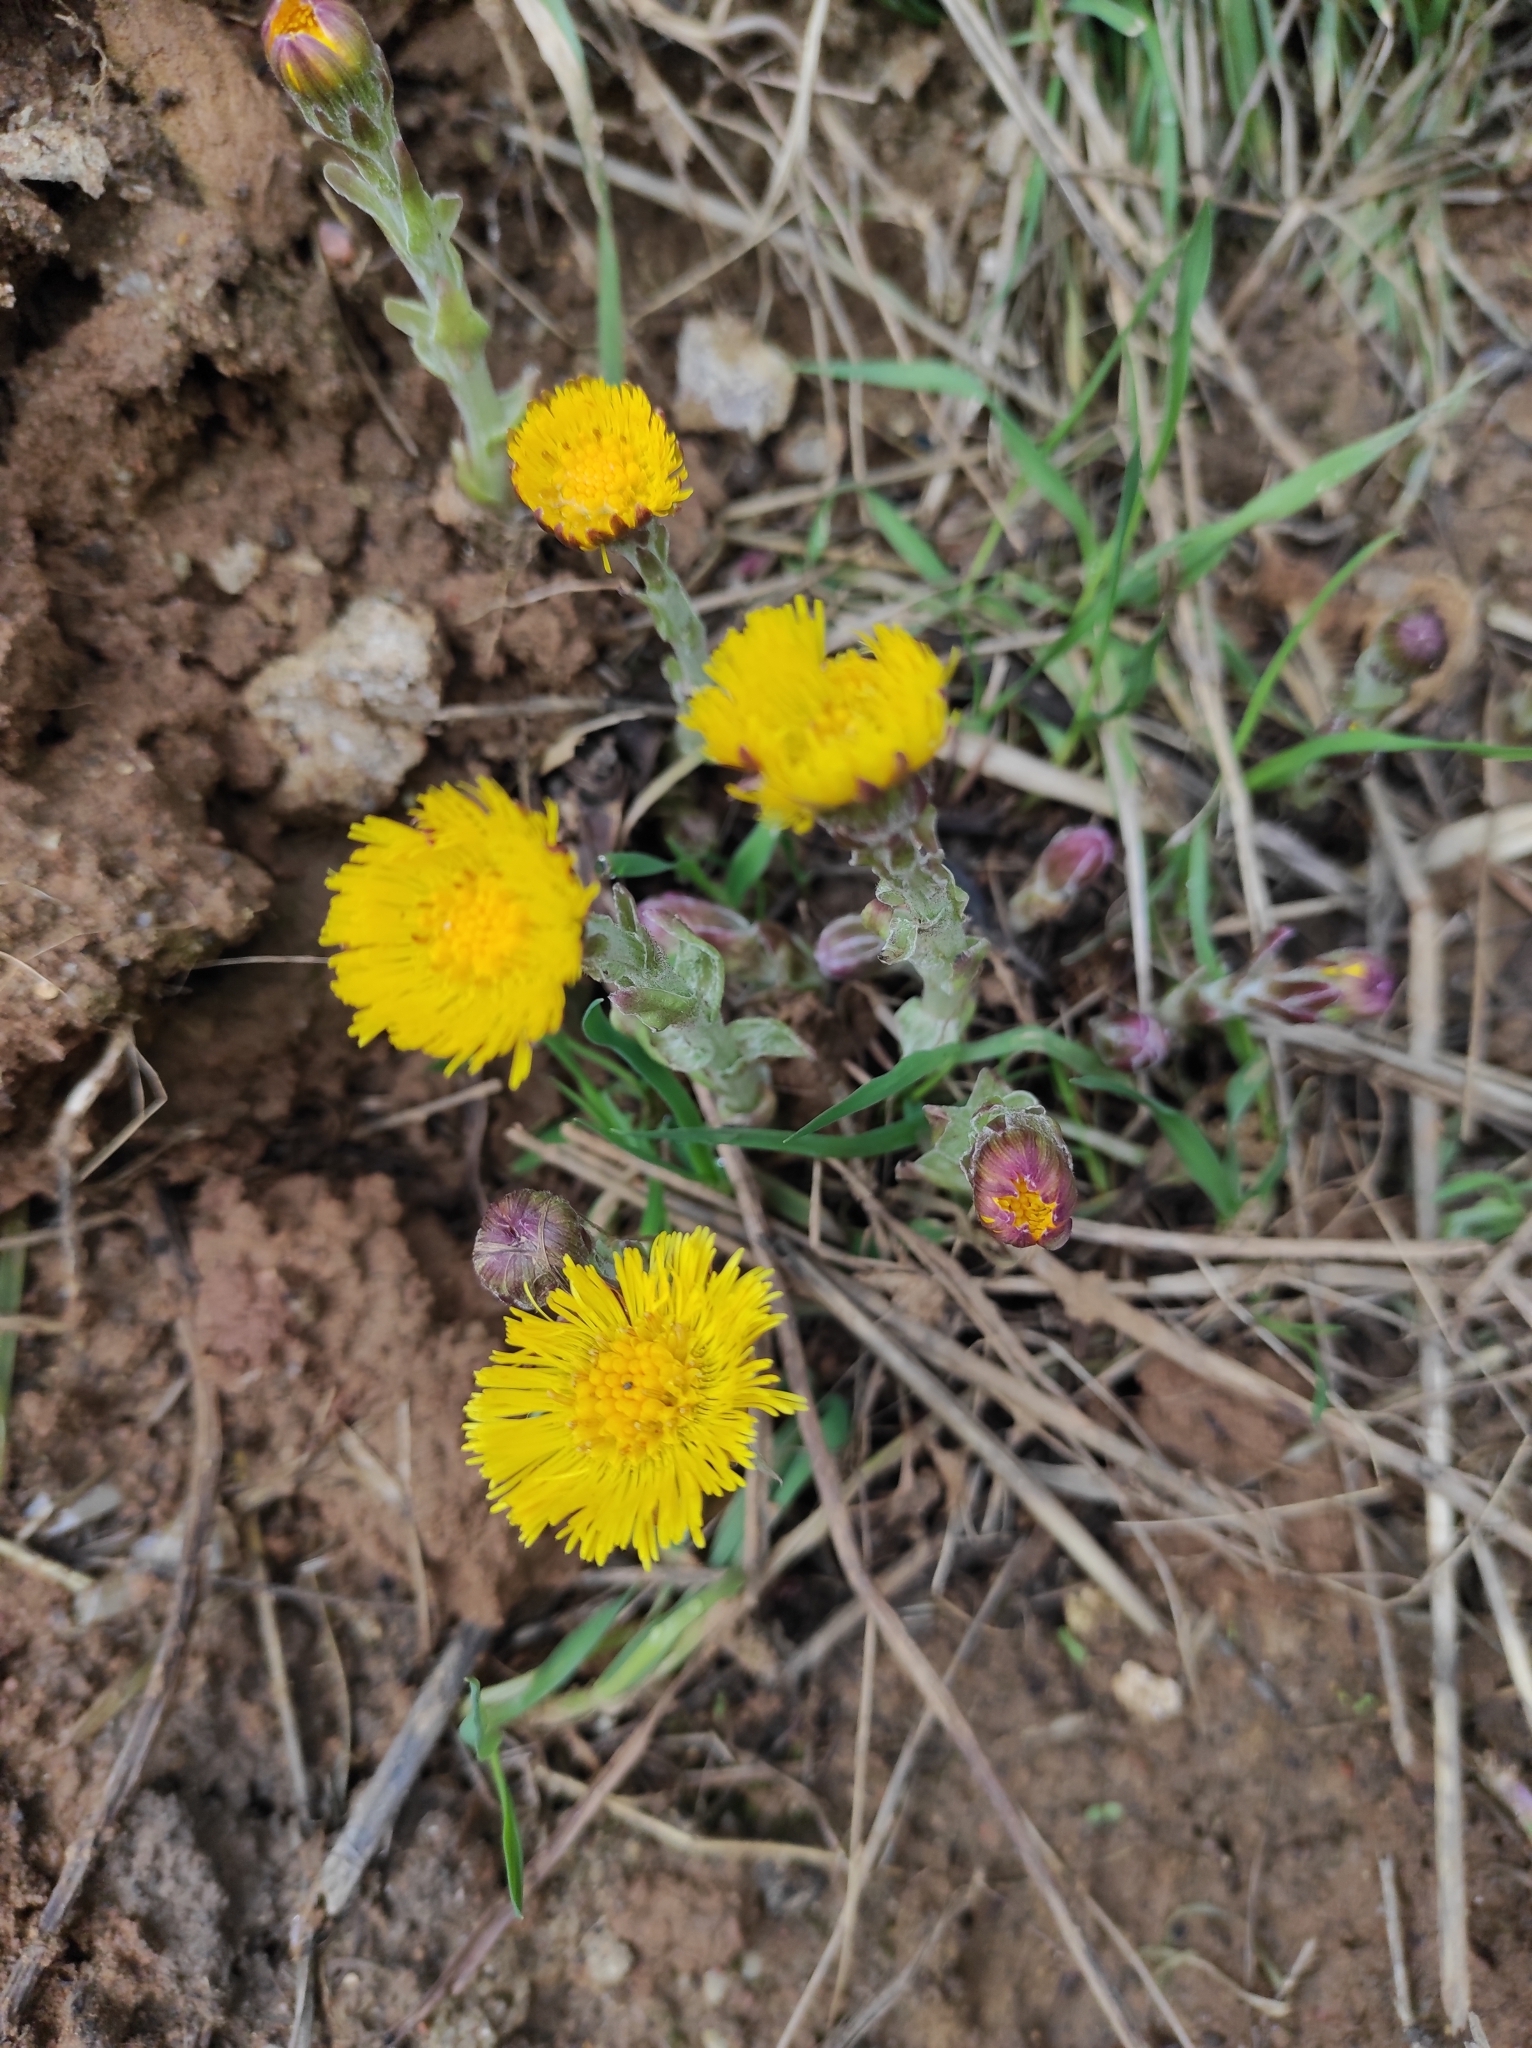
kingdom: Plantae
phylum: Tracheophyta
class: Magnoliopsida
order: Asterales
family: Asteraceae
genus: Tussilago
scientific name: Tussilago farfara
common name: Coltsfoot
